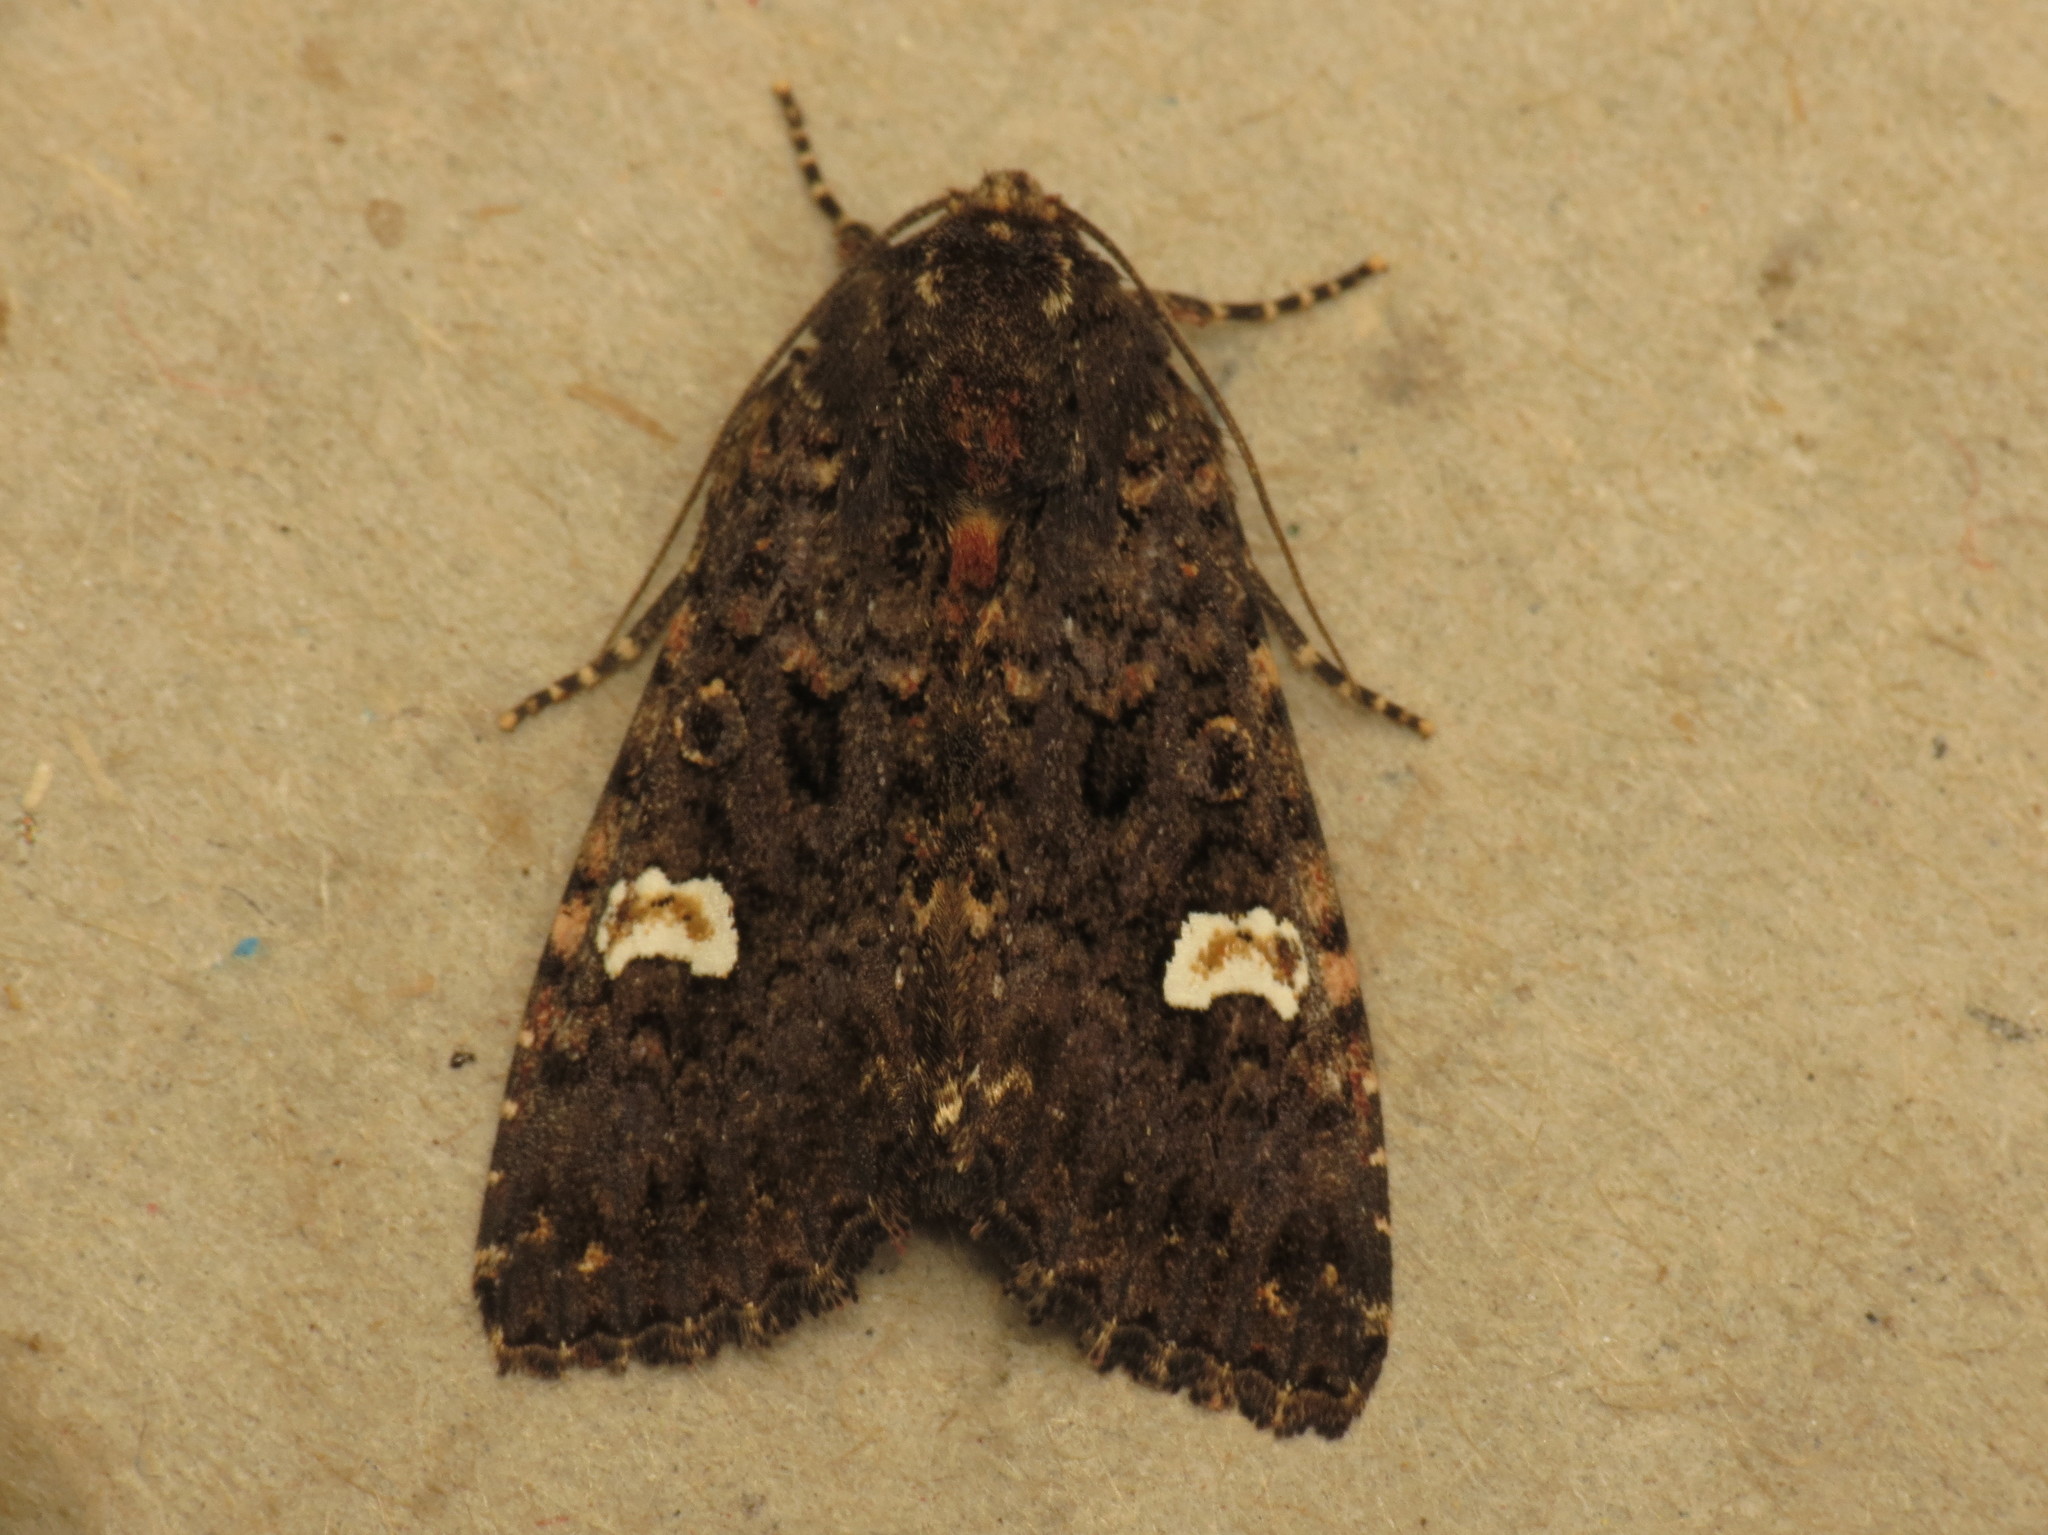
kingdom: Animalia
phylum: Arthropoda
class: Insecta
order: Lepidoptera
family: Noctuidae
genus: Melanchra
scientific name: Melanchra persicariae
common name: Dot moth
